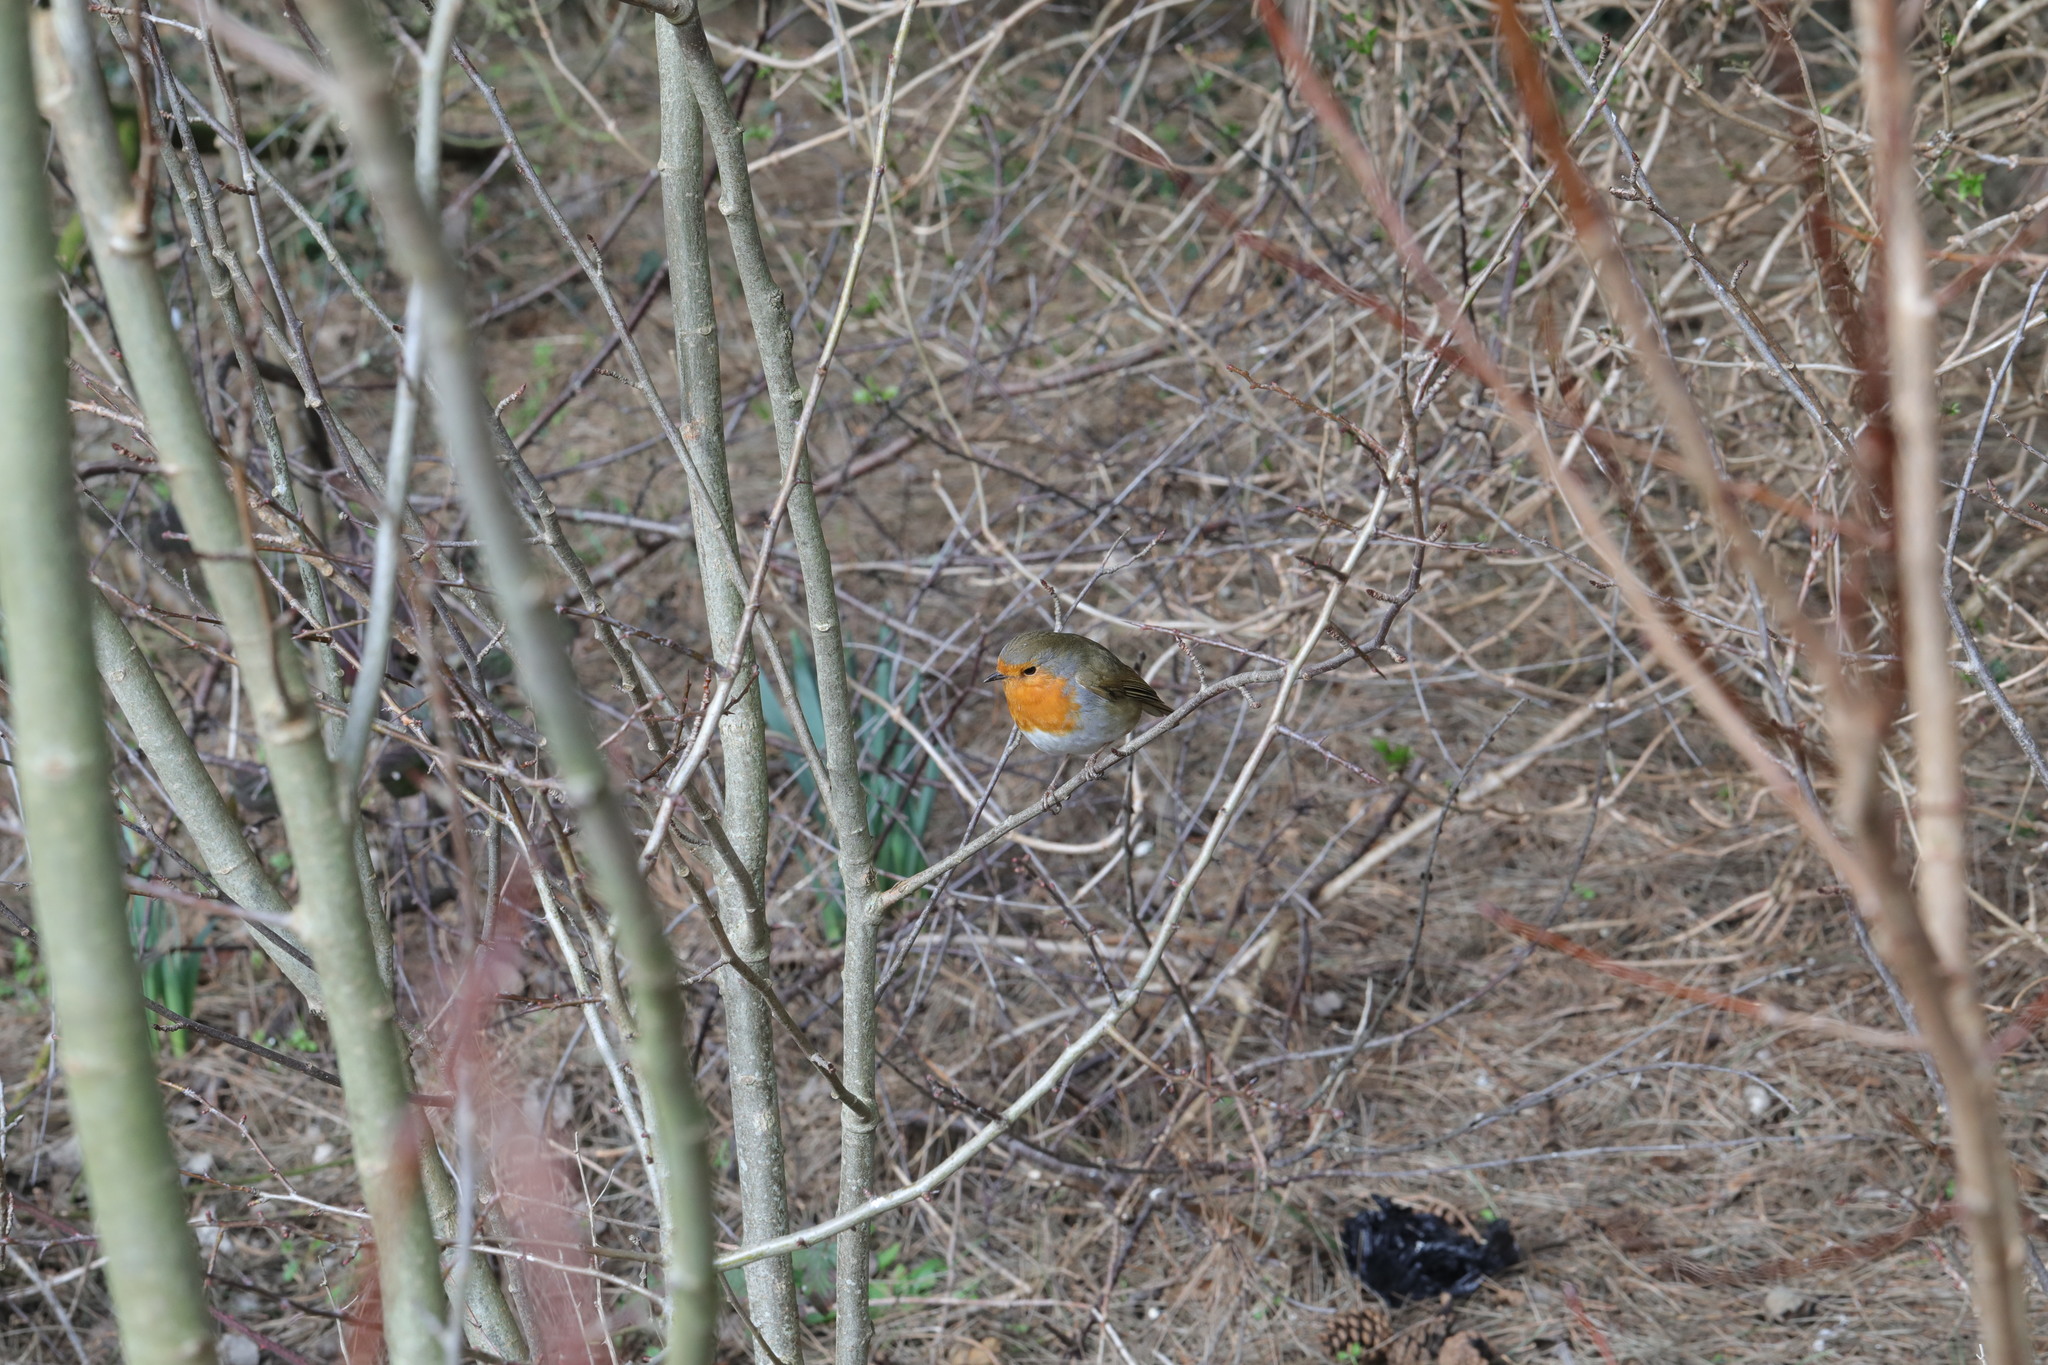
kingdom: Animalia
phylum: Chordata
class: Aves
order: Passeriformes
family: Muscicapidae
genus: Erithacus
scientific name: Erithacus rubecula
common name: European robin
